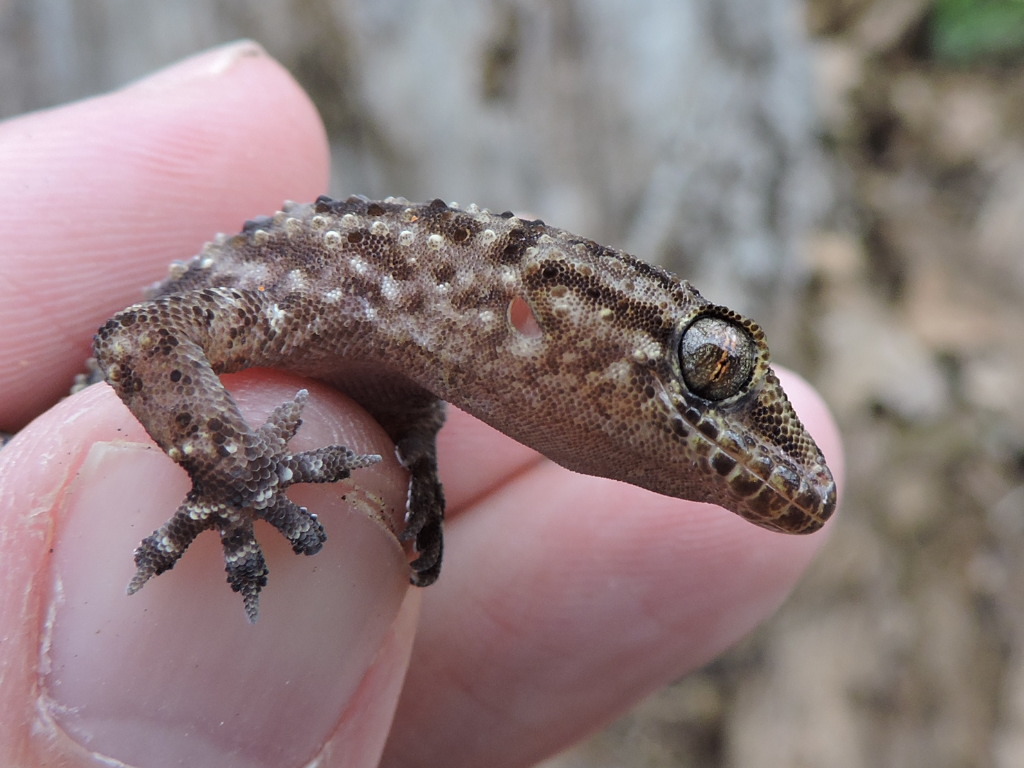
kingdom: Animalia
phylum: Chordata
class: Squamata
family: Gekkonidae
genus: Hemidactylus
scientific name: Hemidactylus turcicus
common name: Turkish gecko
